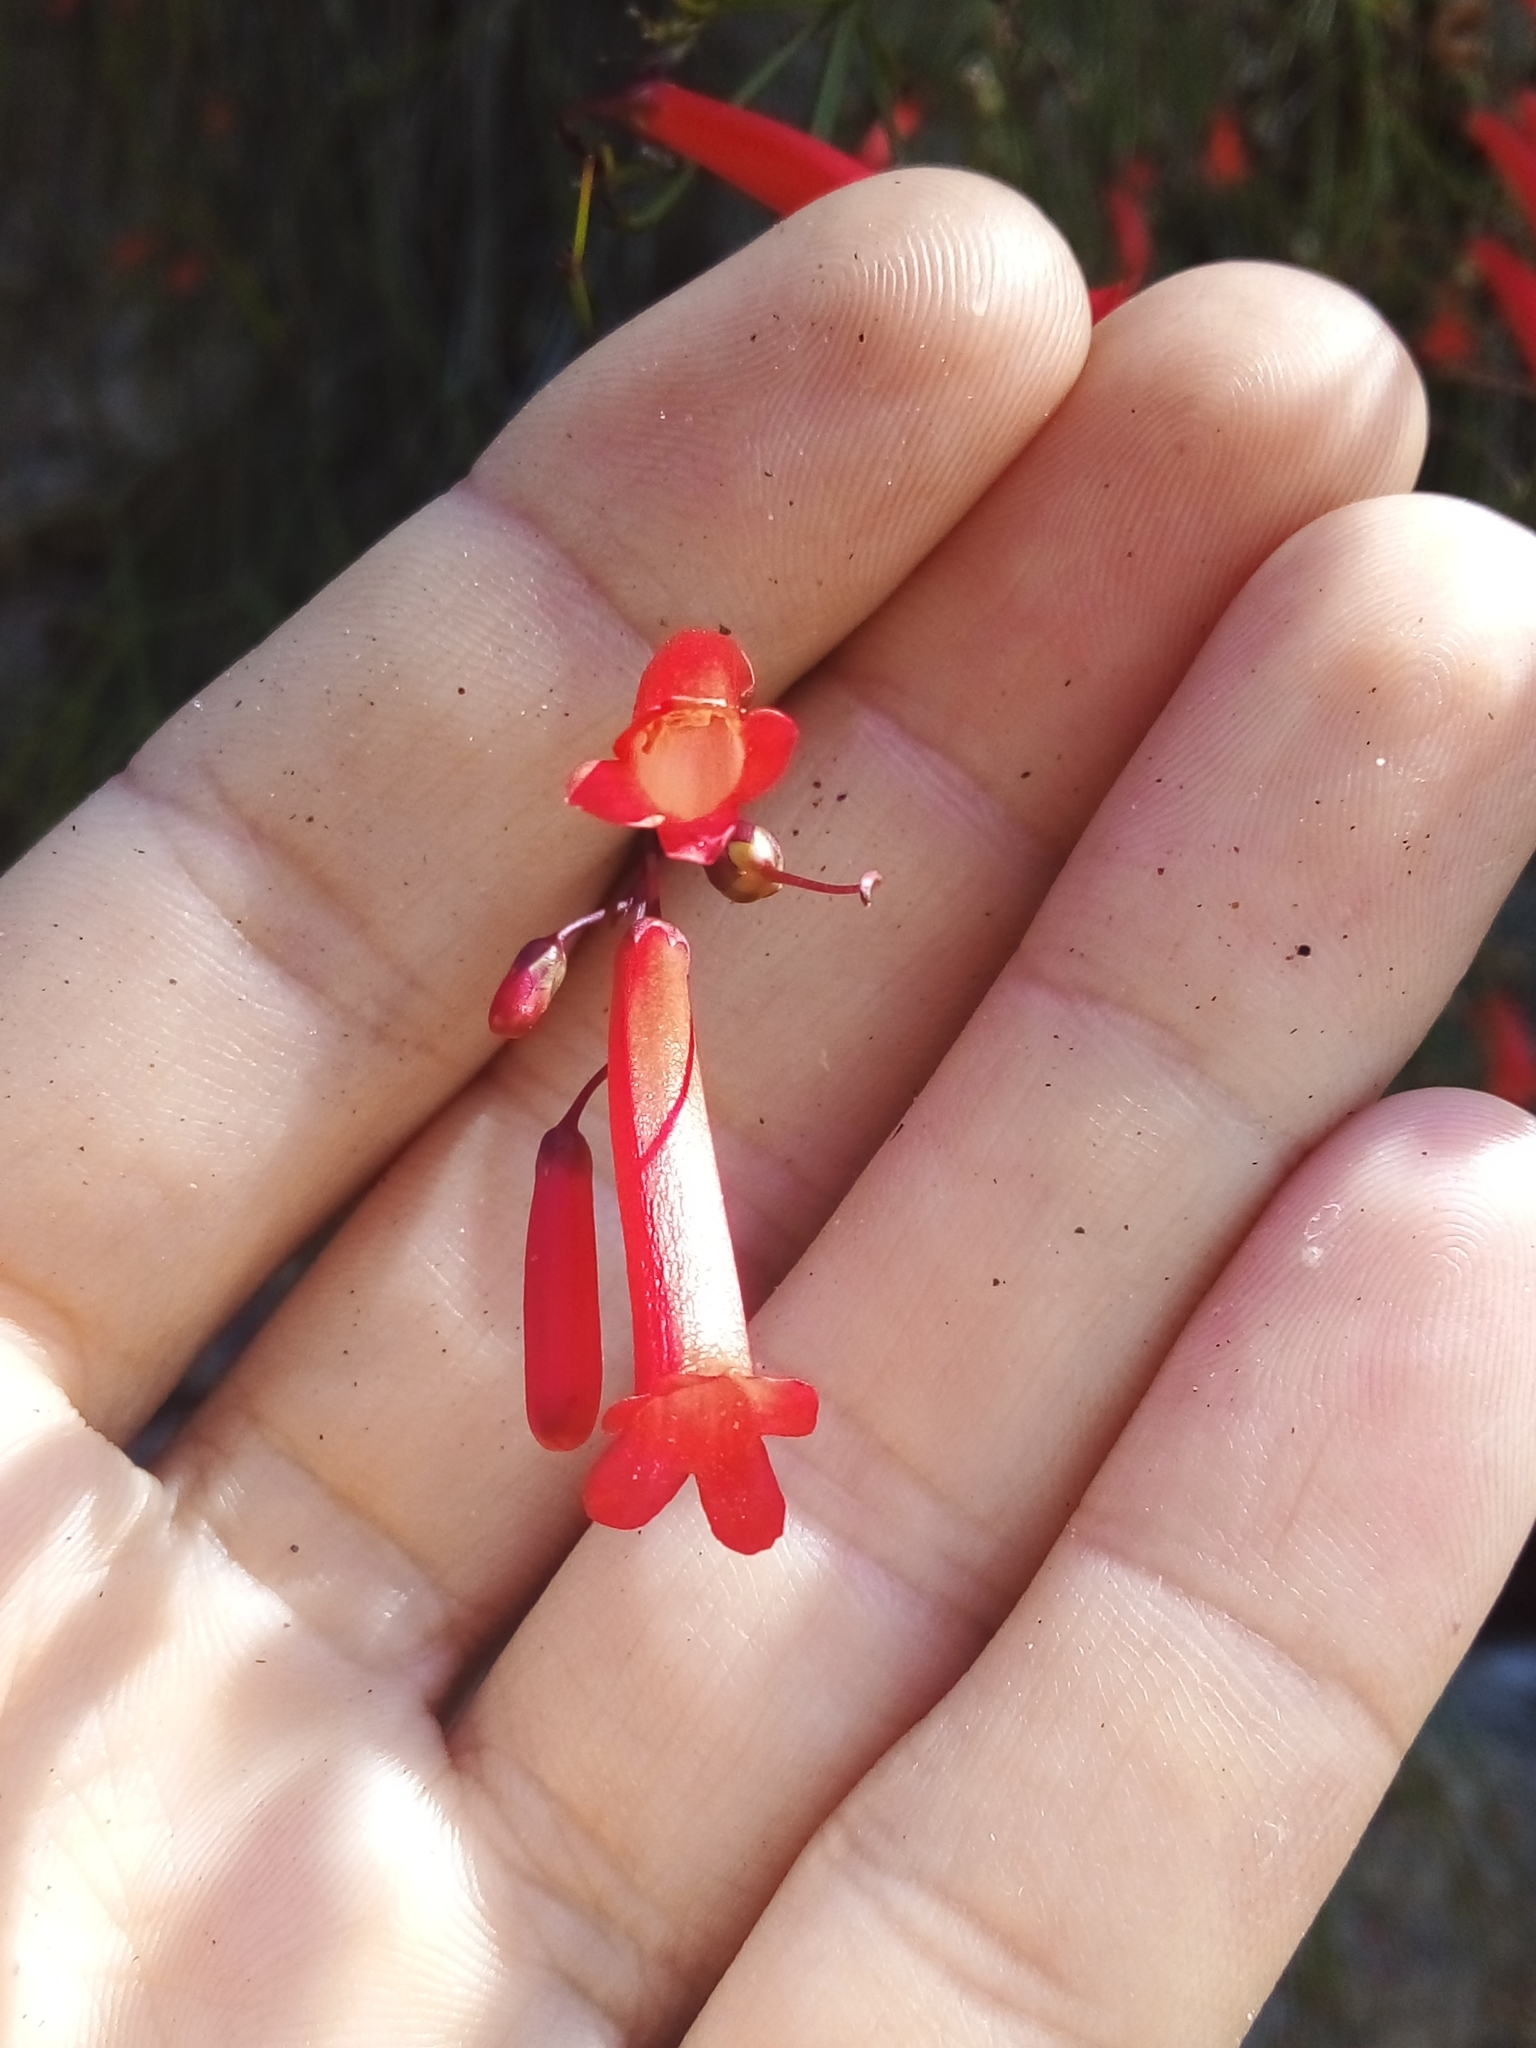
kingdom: Plantae
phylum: Tracheophyta
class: Magnoliopsida
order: Lamiales
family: Plantaginaceae
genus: Russelia
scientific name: Russelia equisetiformis
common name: Fountainbush
